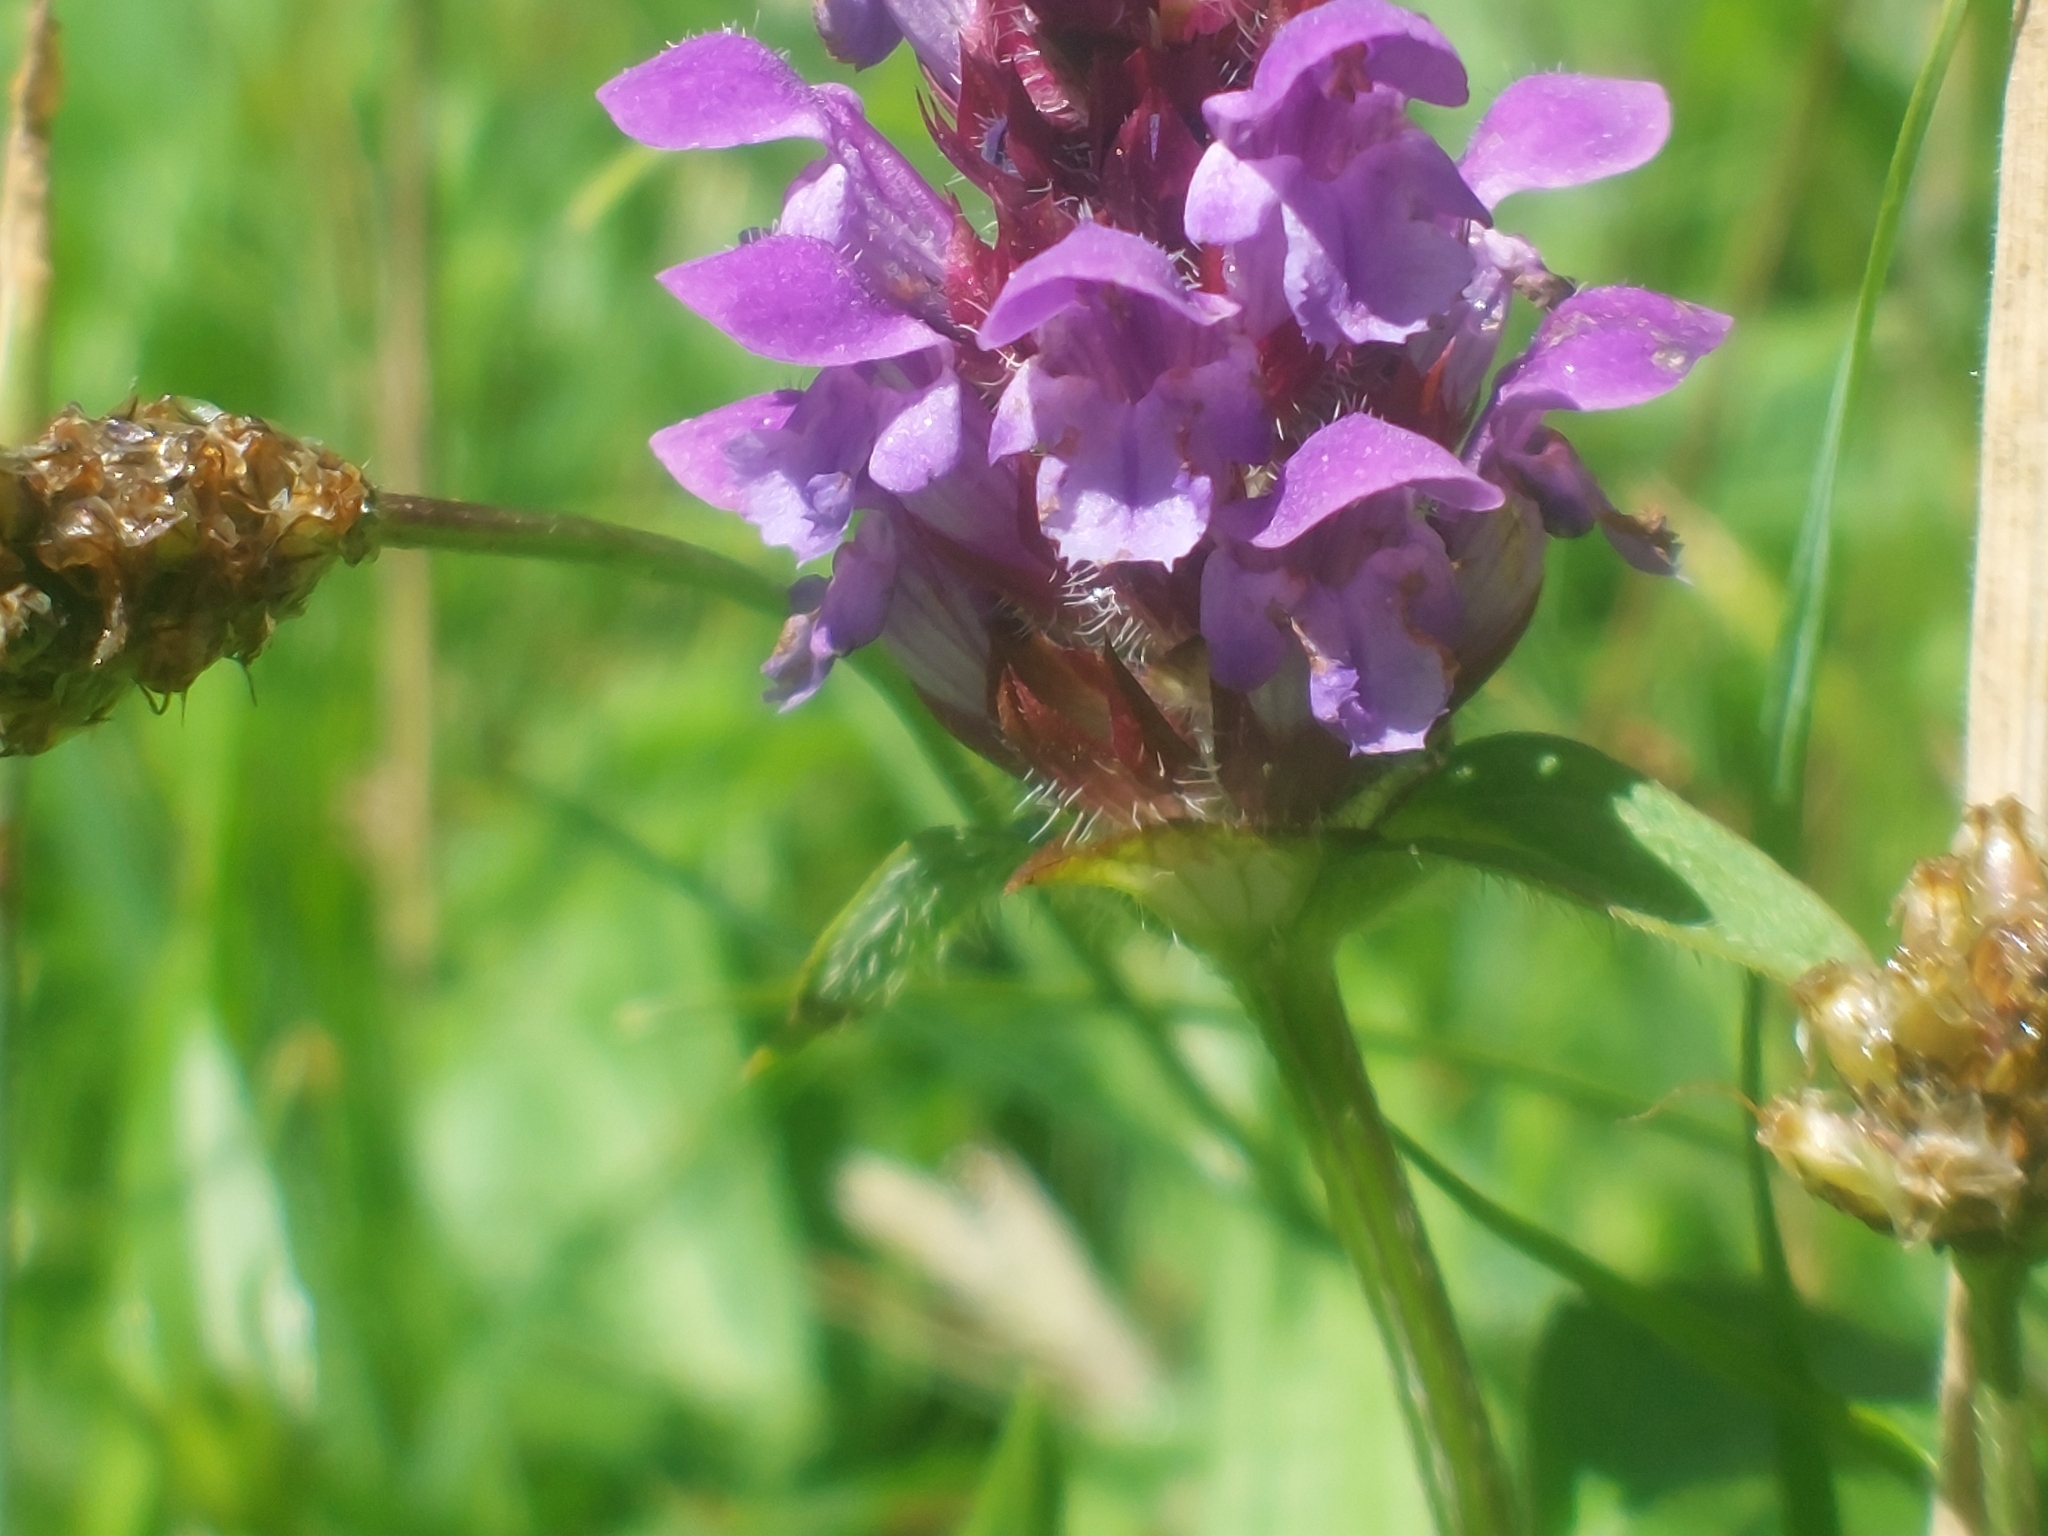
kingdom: Plantae
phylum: Tracheophyta
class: Magnoliopsida
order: Lamiales
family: Lamiaceae
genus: Prunella
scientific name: Prunella vulgaris
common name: Heal-all
